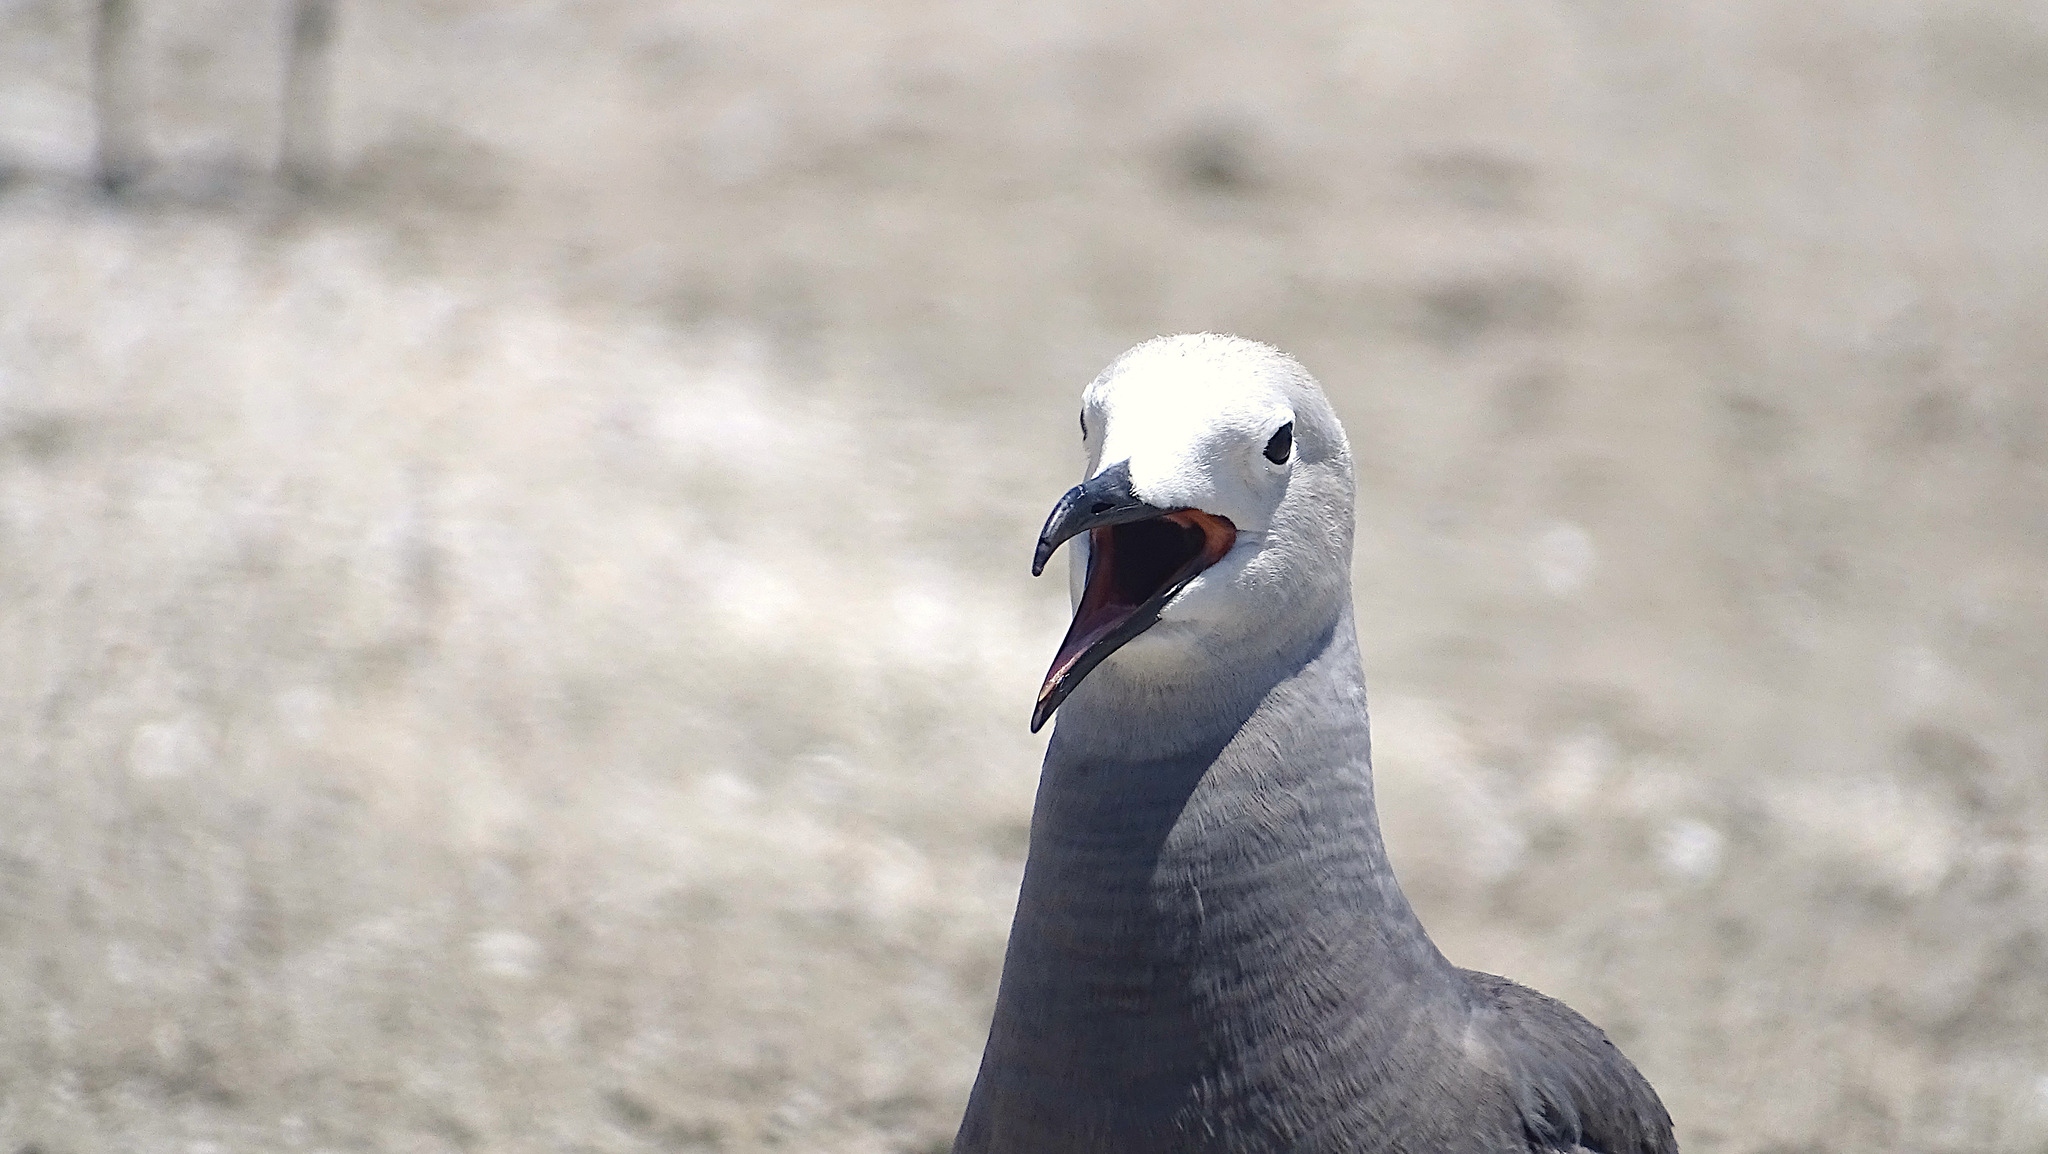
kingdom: Animalia
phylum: Chordata
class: Aves
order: Charadriiformes
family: Laridae
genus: Leucophaeus
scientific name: Leucophaeus modestus
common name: Gray gull
